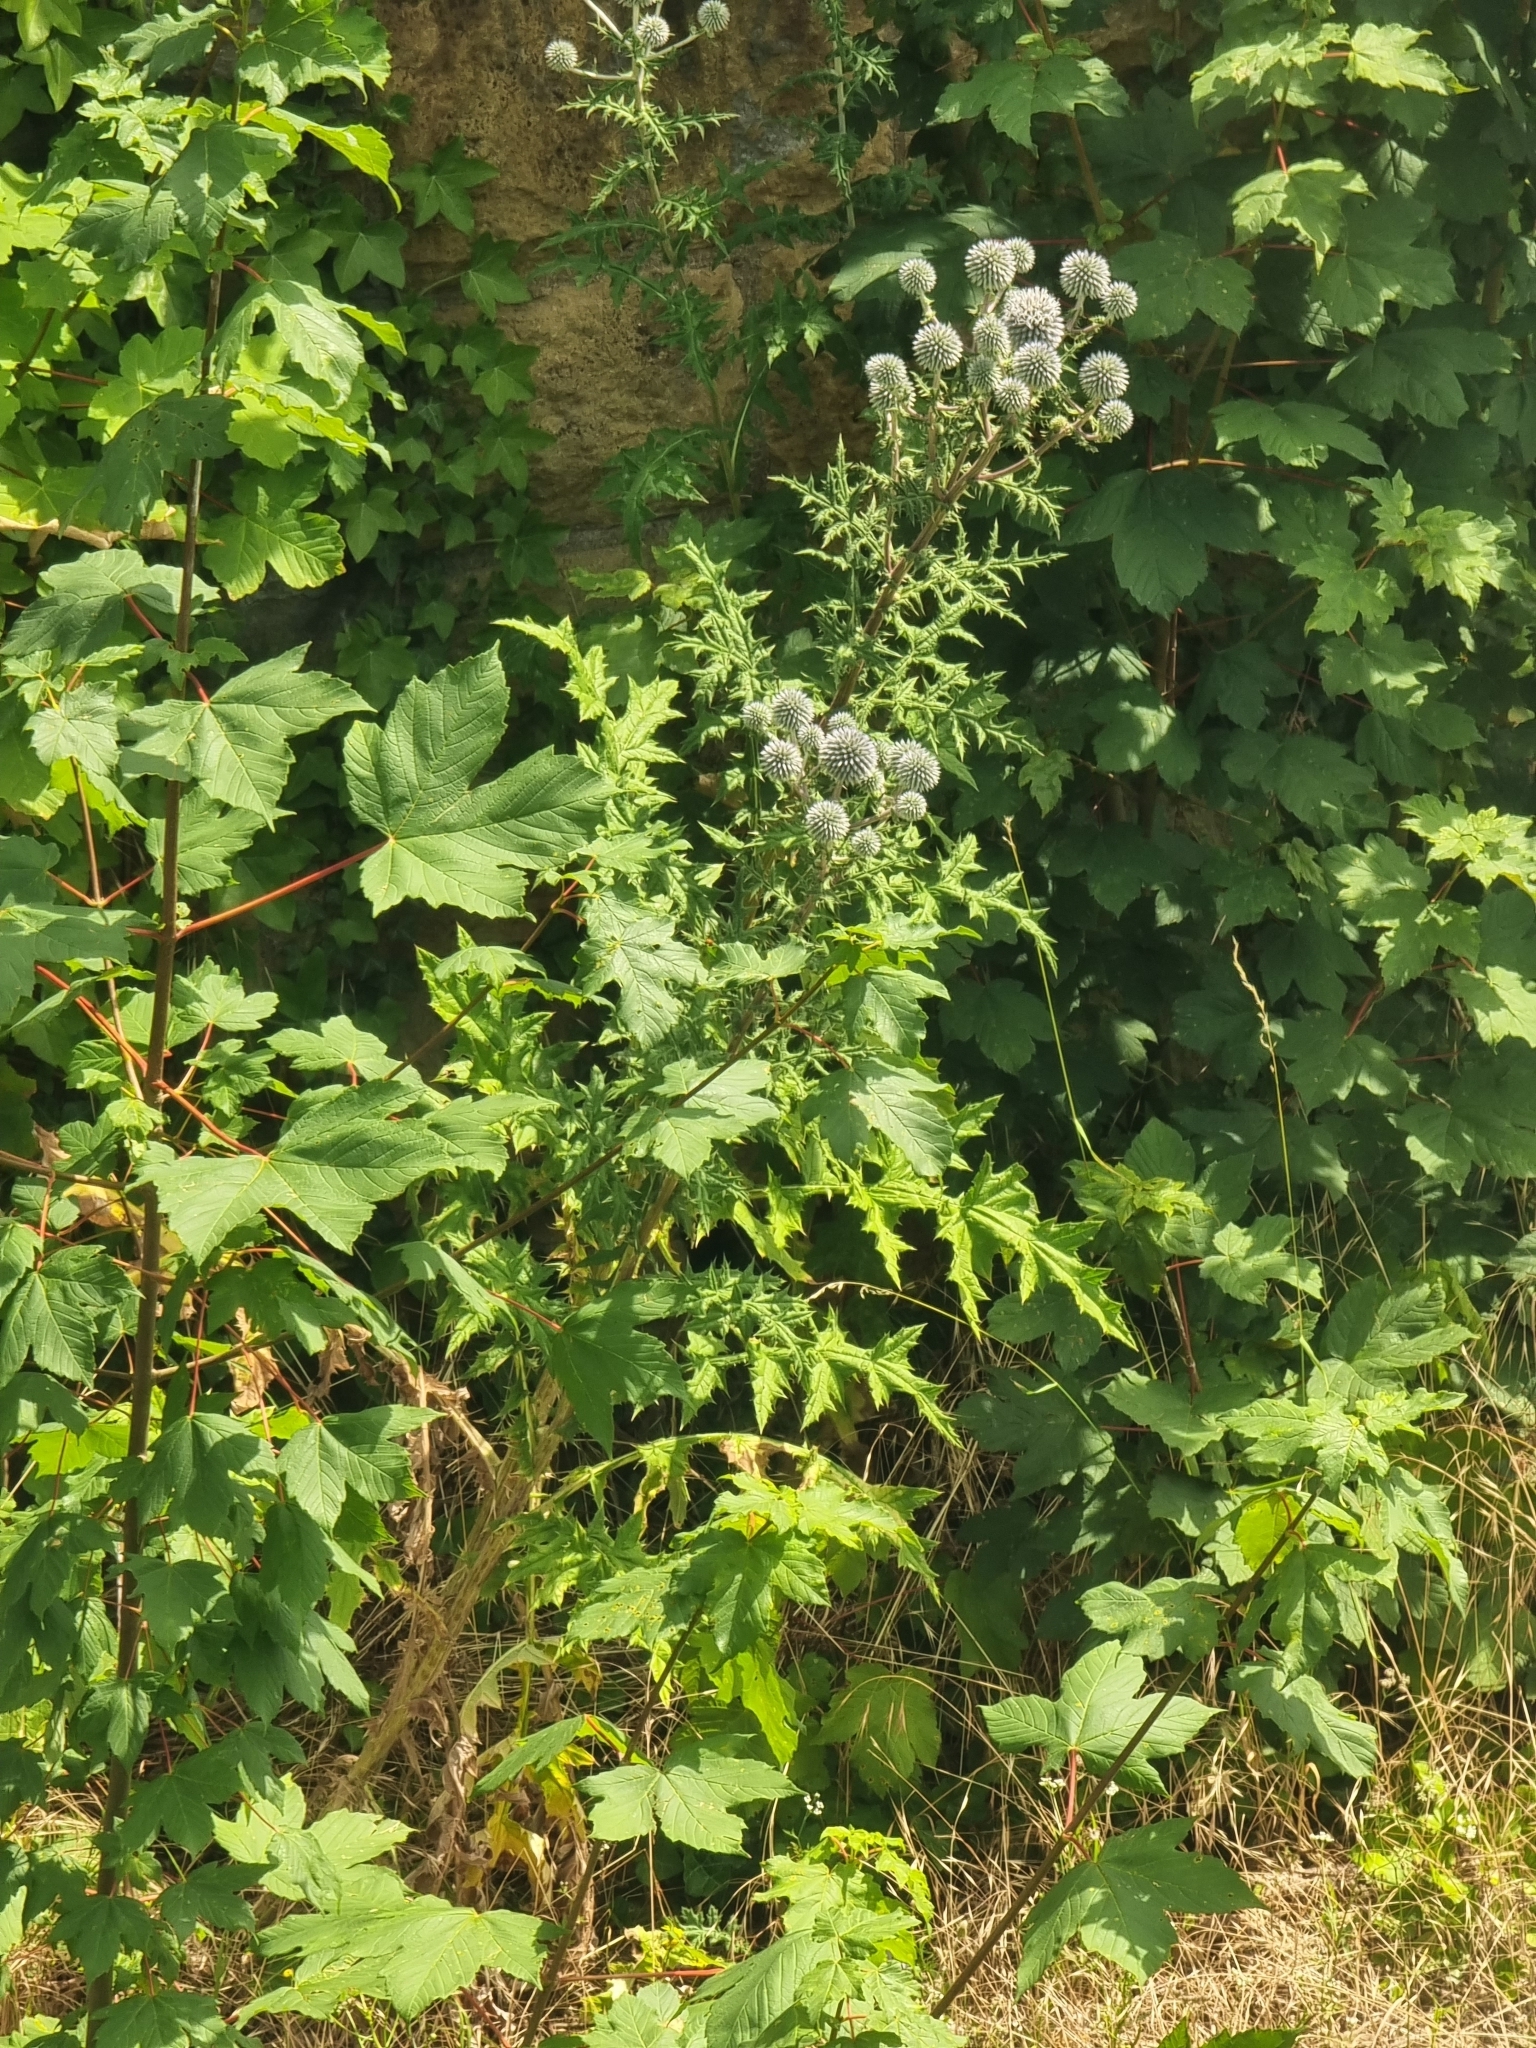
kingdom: Plantae
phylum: Tracheophyta
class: Magnoliopsida
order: Asterales
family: Asteraceae
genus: Echinops
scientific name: Echinops sphaerocephalus
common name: Glandular globe-thistle
